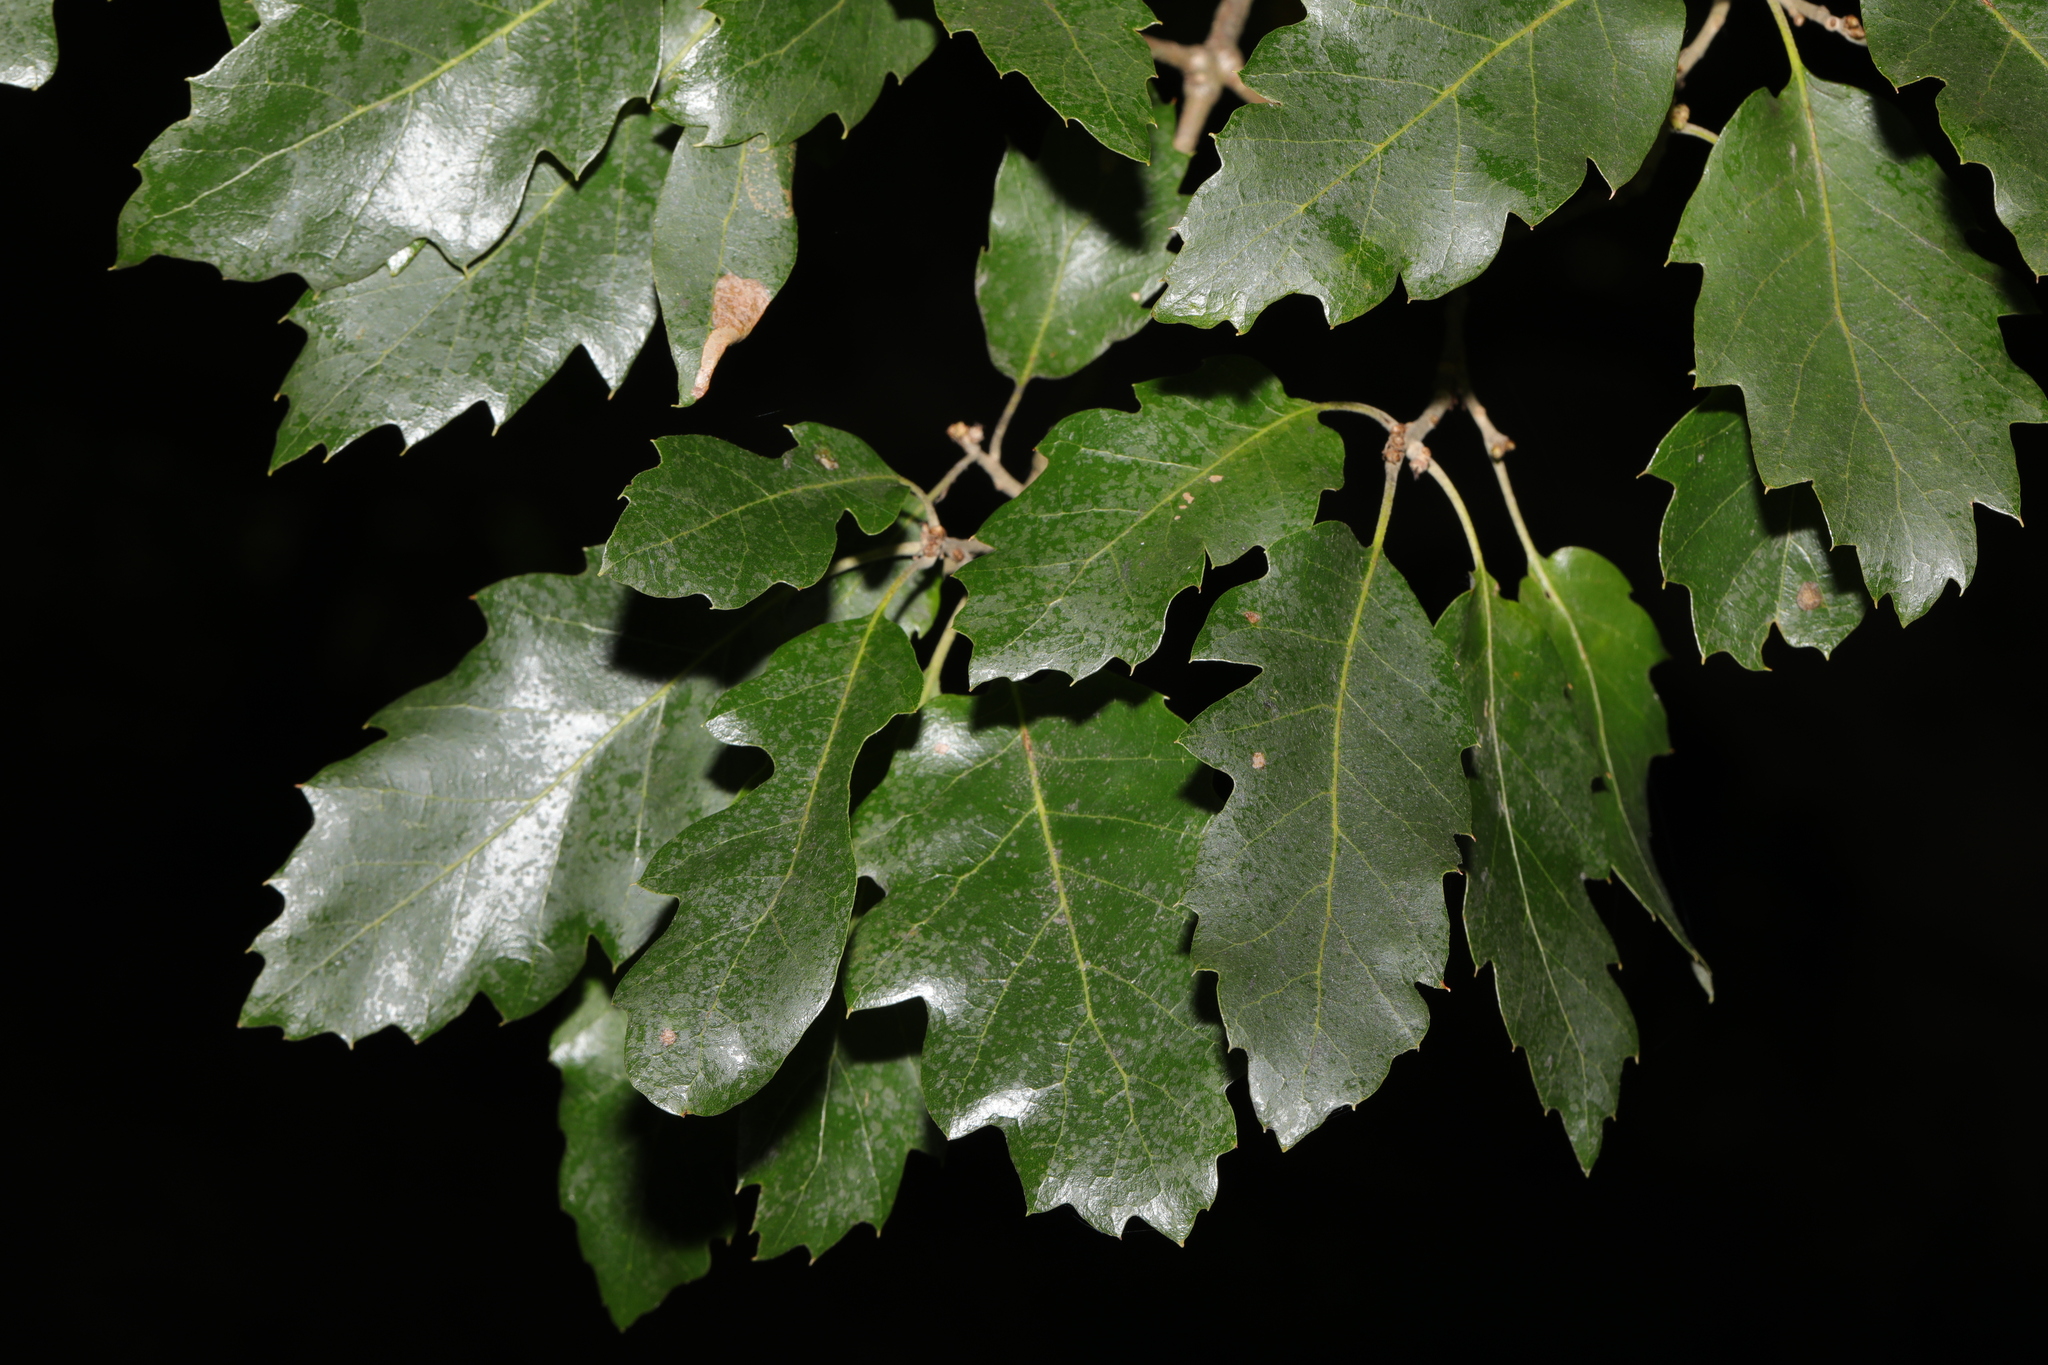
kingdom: Plantae
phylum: Tracheophyta
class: Magnoliopsida
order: Fagales
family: Fagaceae
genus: Quercus
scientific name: Quercus crenata
